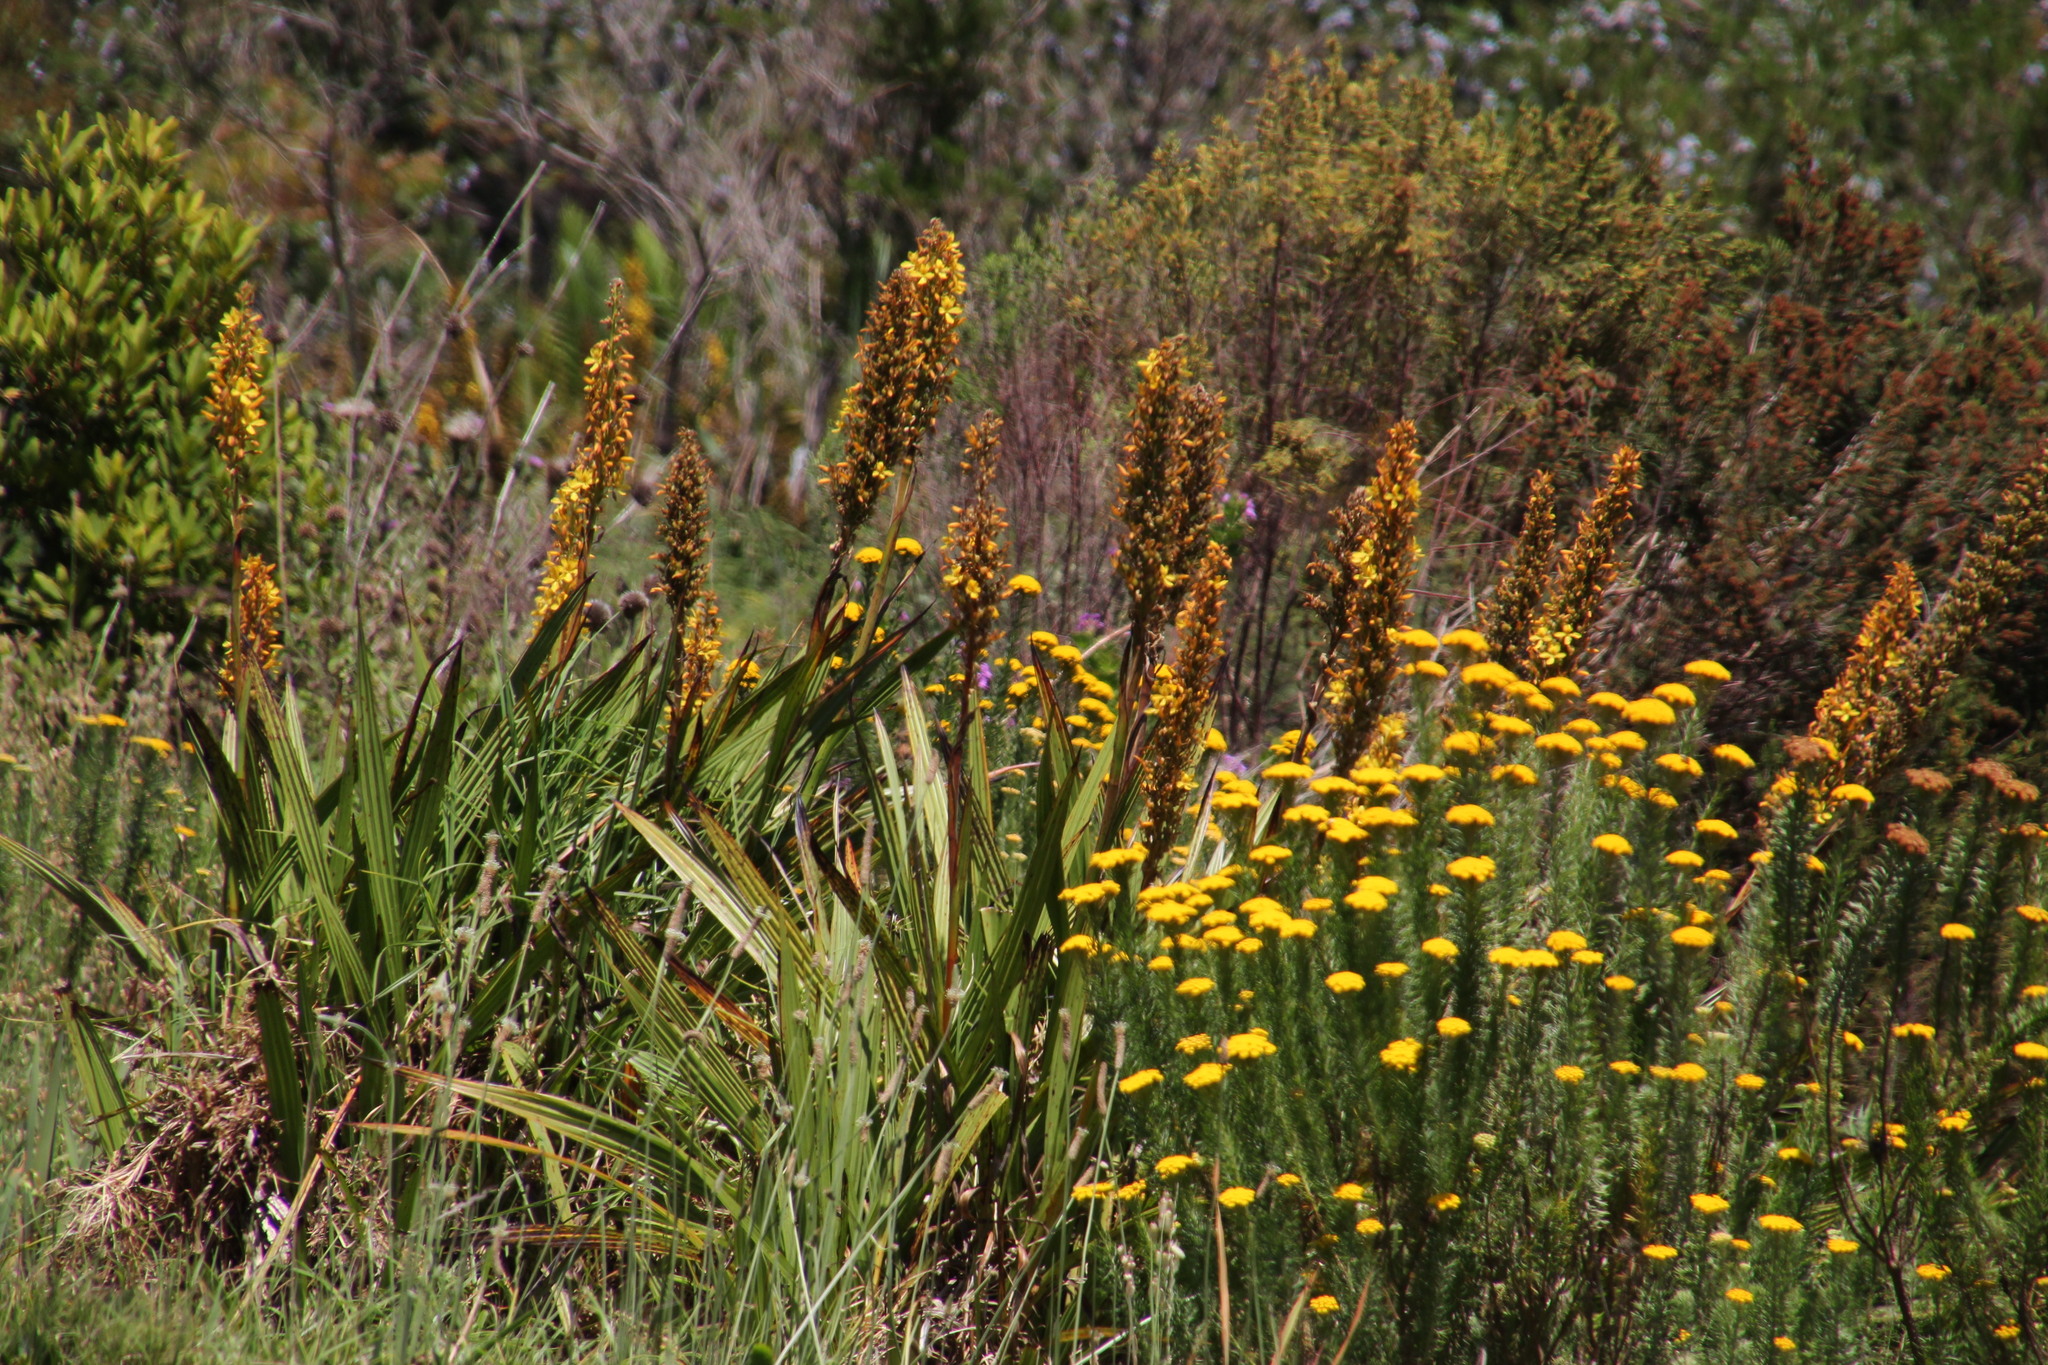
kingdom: Plantae
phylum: Tracheophyta
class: Liliopsida
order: Commelinales
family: Haemodoraceae
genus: Wachendorfia
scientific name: Wachendorfia thyrsiflora
